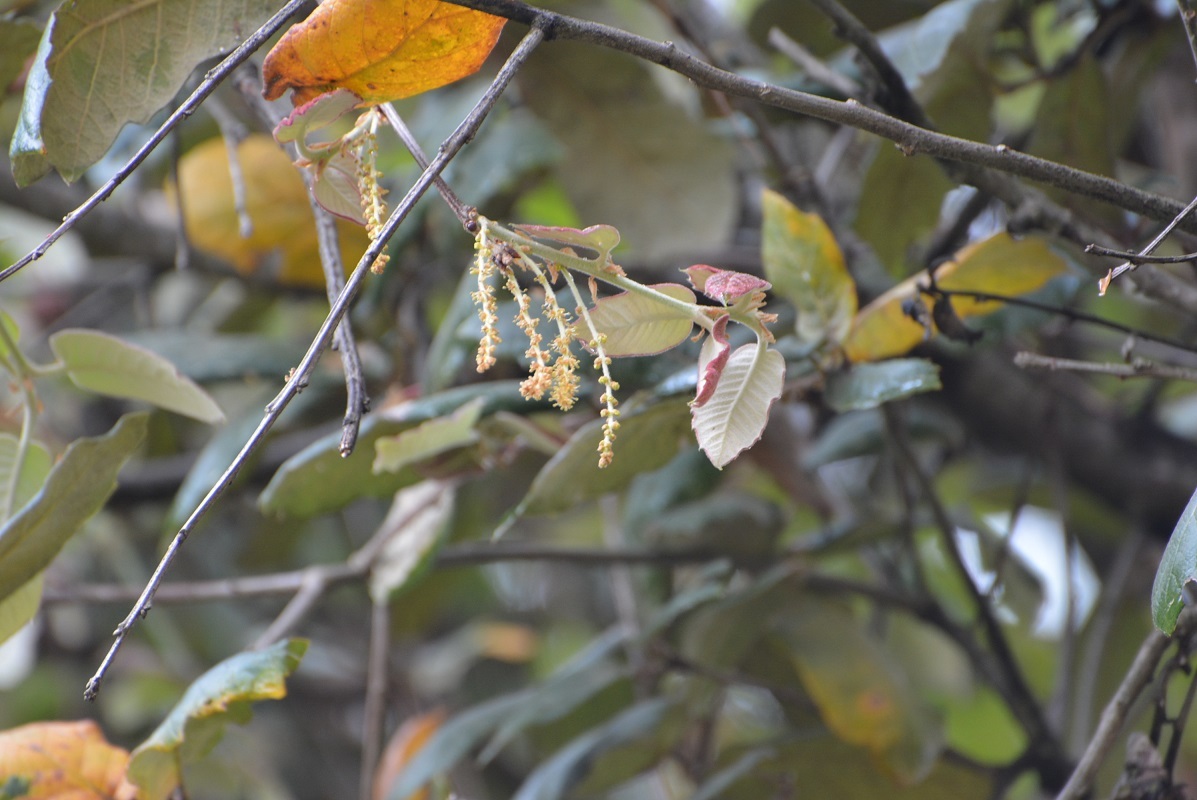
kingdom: Plantae
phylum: Tracheophyta
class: Magnoliopsida
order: Fagales
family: Fagaceae
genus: Quercus
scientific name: Quercus rugosa
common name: Netleaf oak
